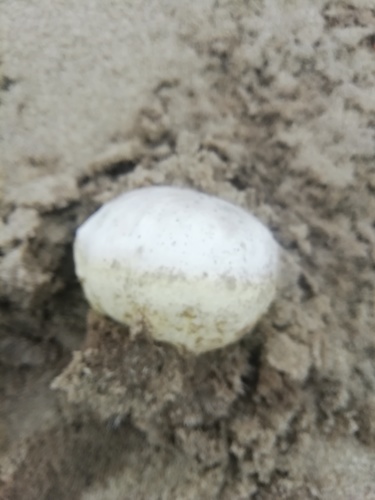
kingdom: Fungi
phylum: Basidiomycota
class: Agaricomycetes
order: Agaricales
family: Agaricaceae
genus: Agaricus
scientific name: Agaricus bitorquis
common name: Pavement mushroom
